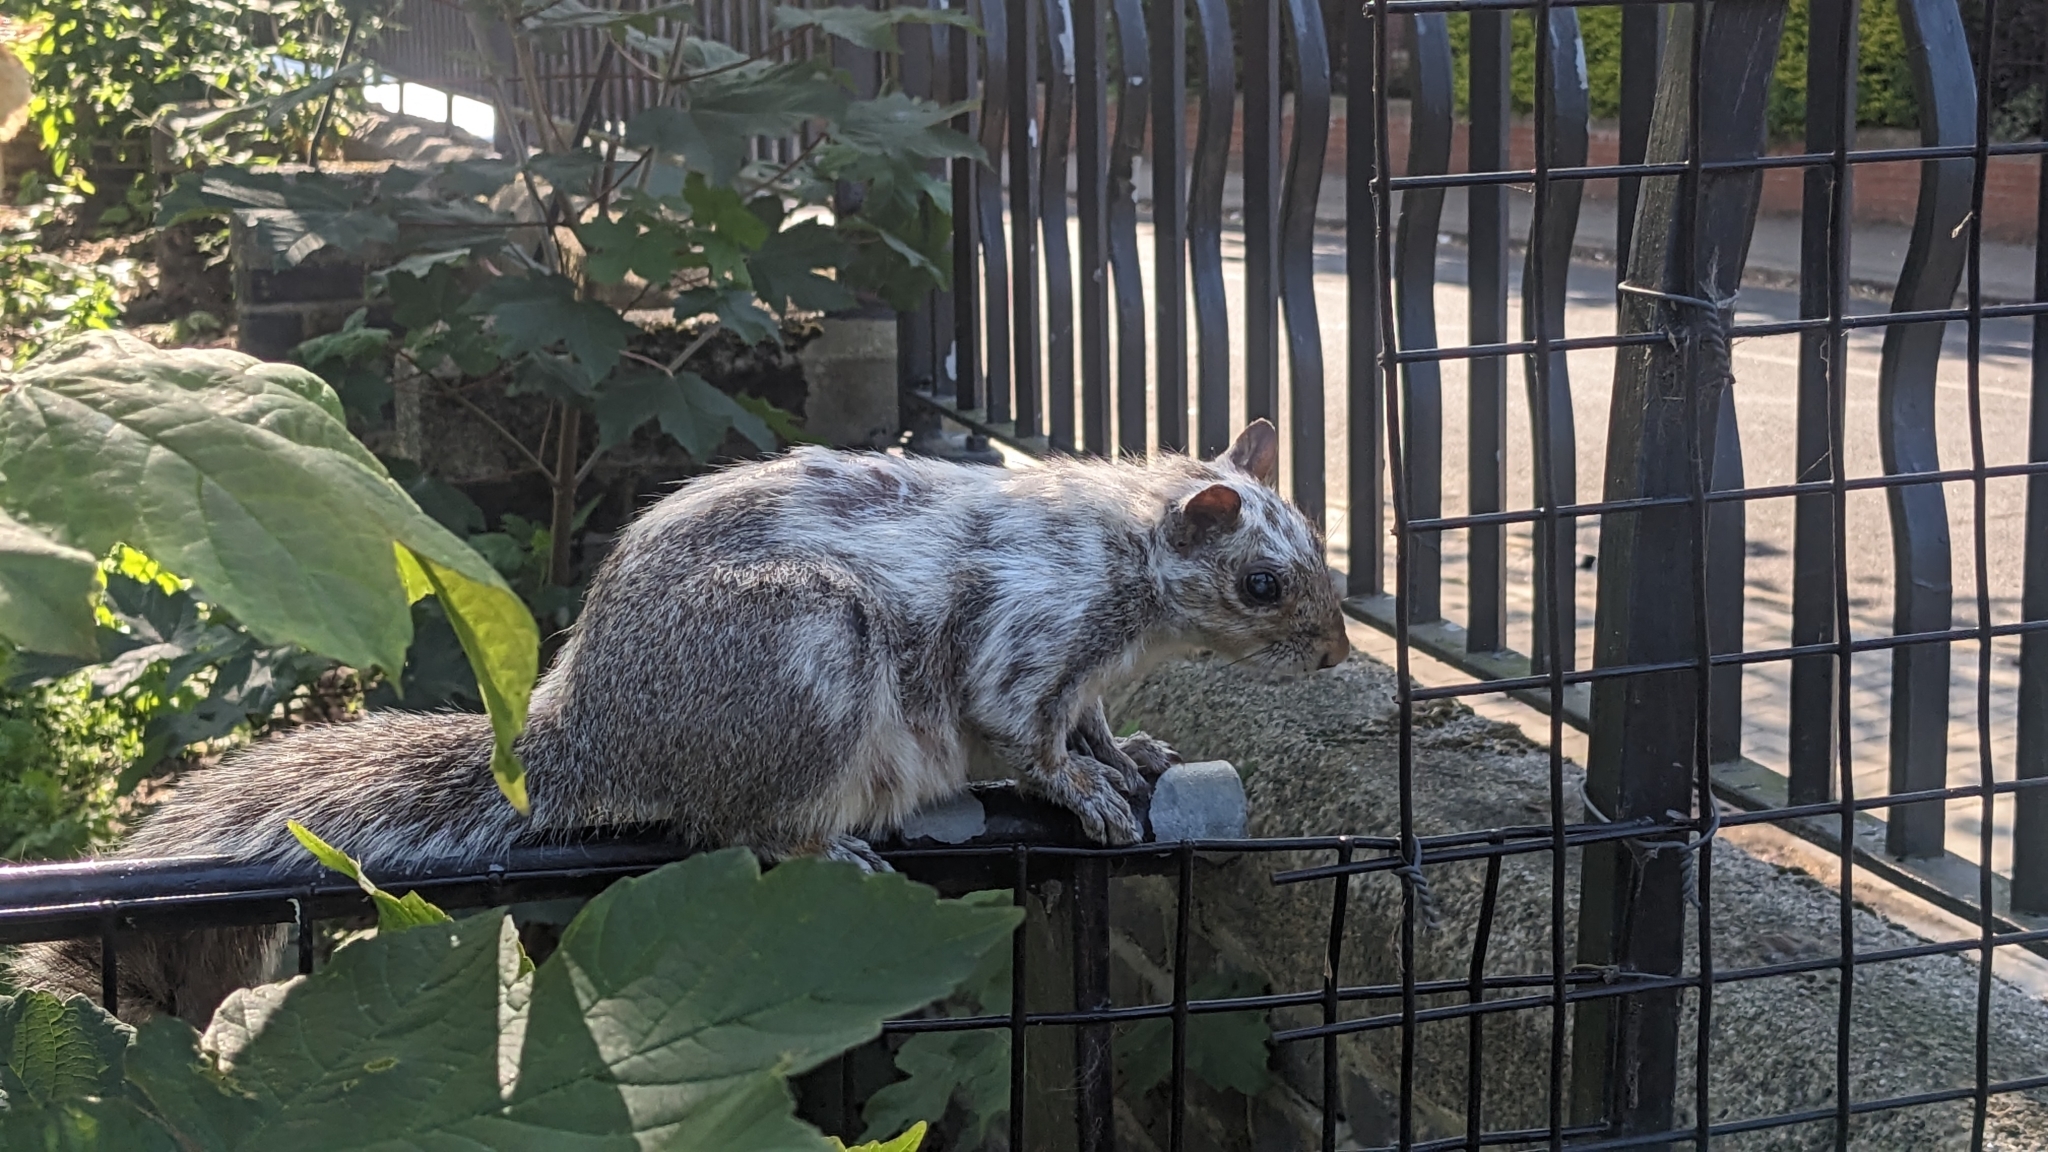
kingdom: Animalia
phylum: Chordata
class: Mammalia
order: Rodentia
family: Sciuridae
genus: Sciurus
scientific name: Sciurus carolinensis
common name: Eastern gray squirrel
